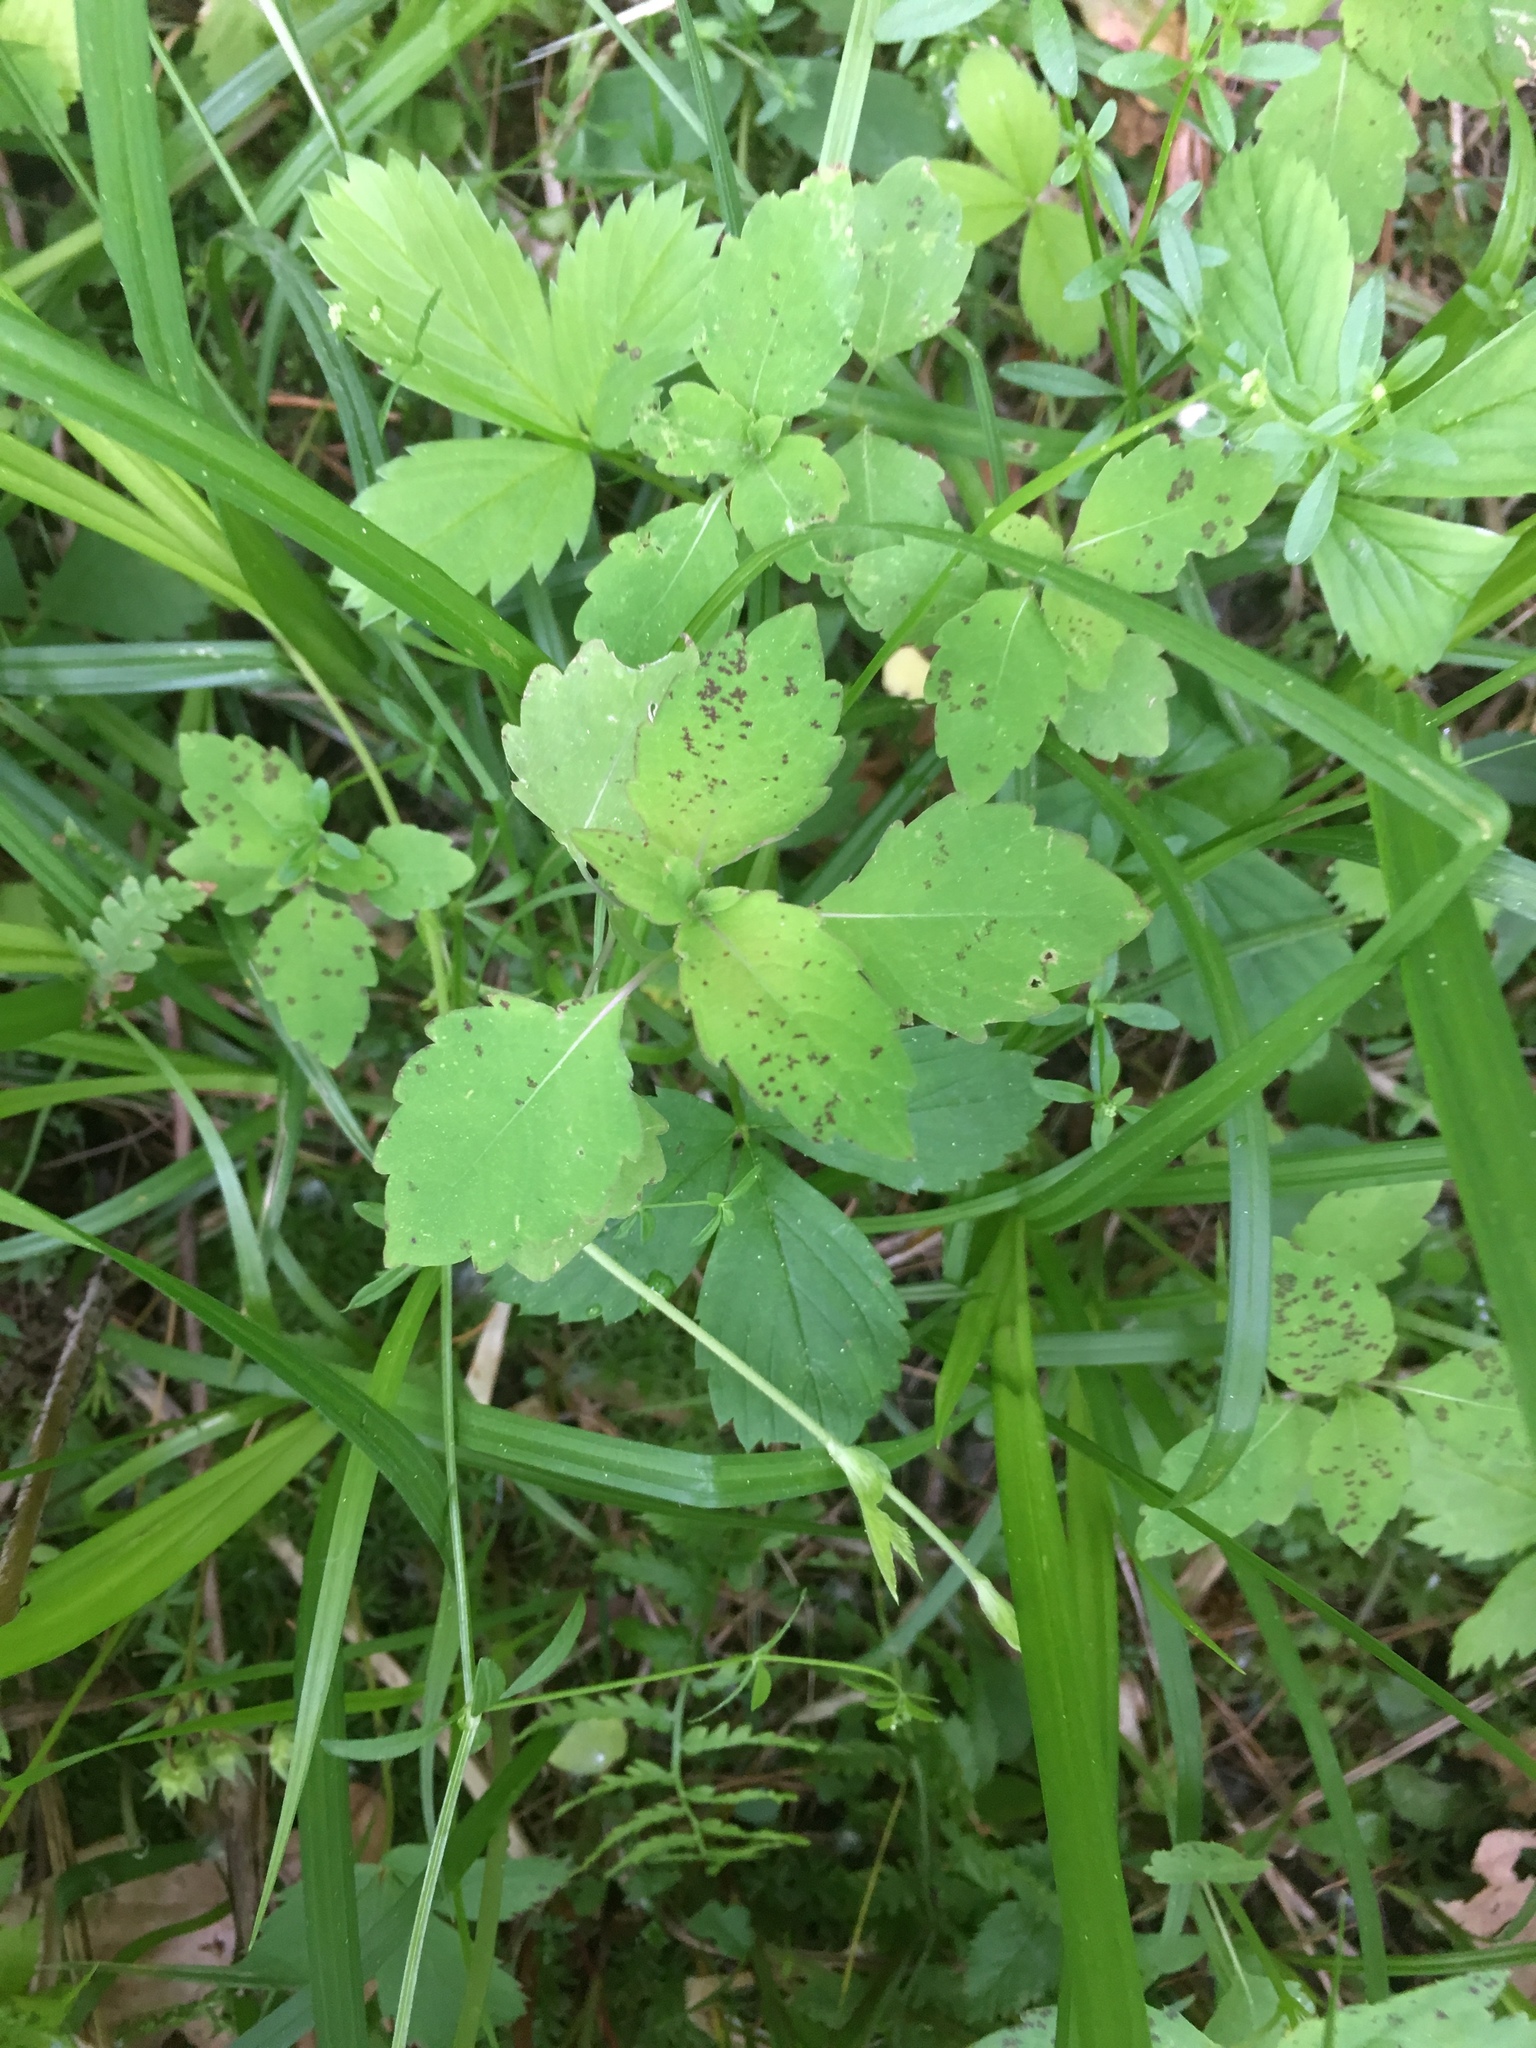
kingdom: Plantae
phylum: Tracheophyta
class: Magnoliopsida
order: Ericales
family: Balsaminaceae
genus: Impatiens
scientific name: Impatiens capensis
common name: Orange balsam
